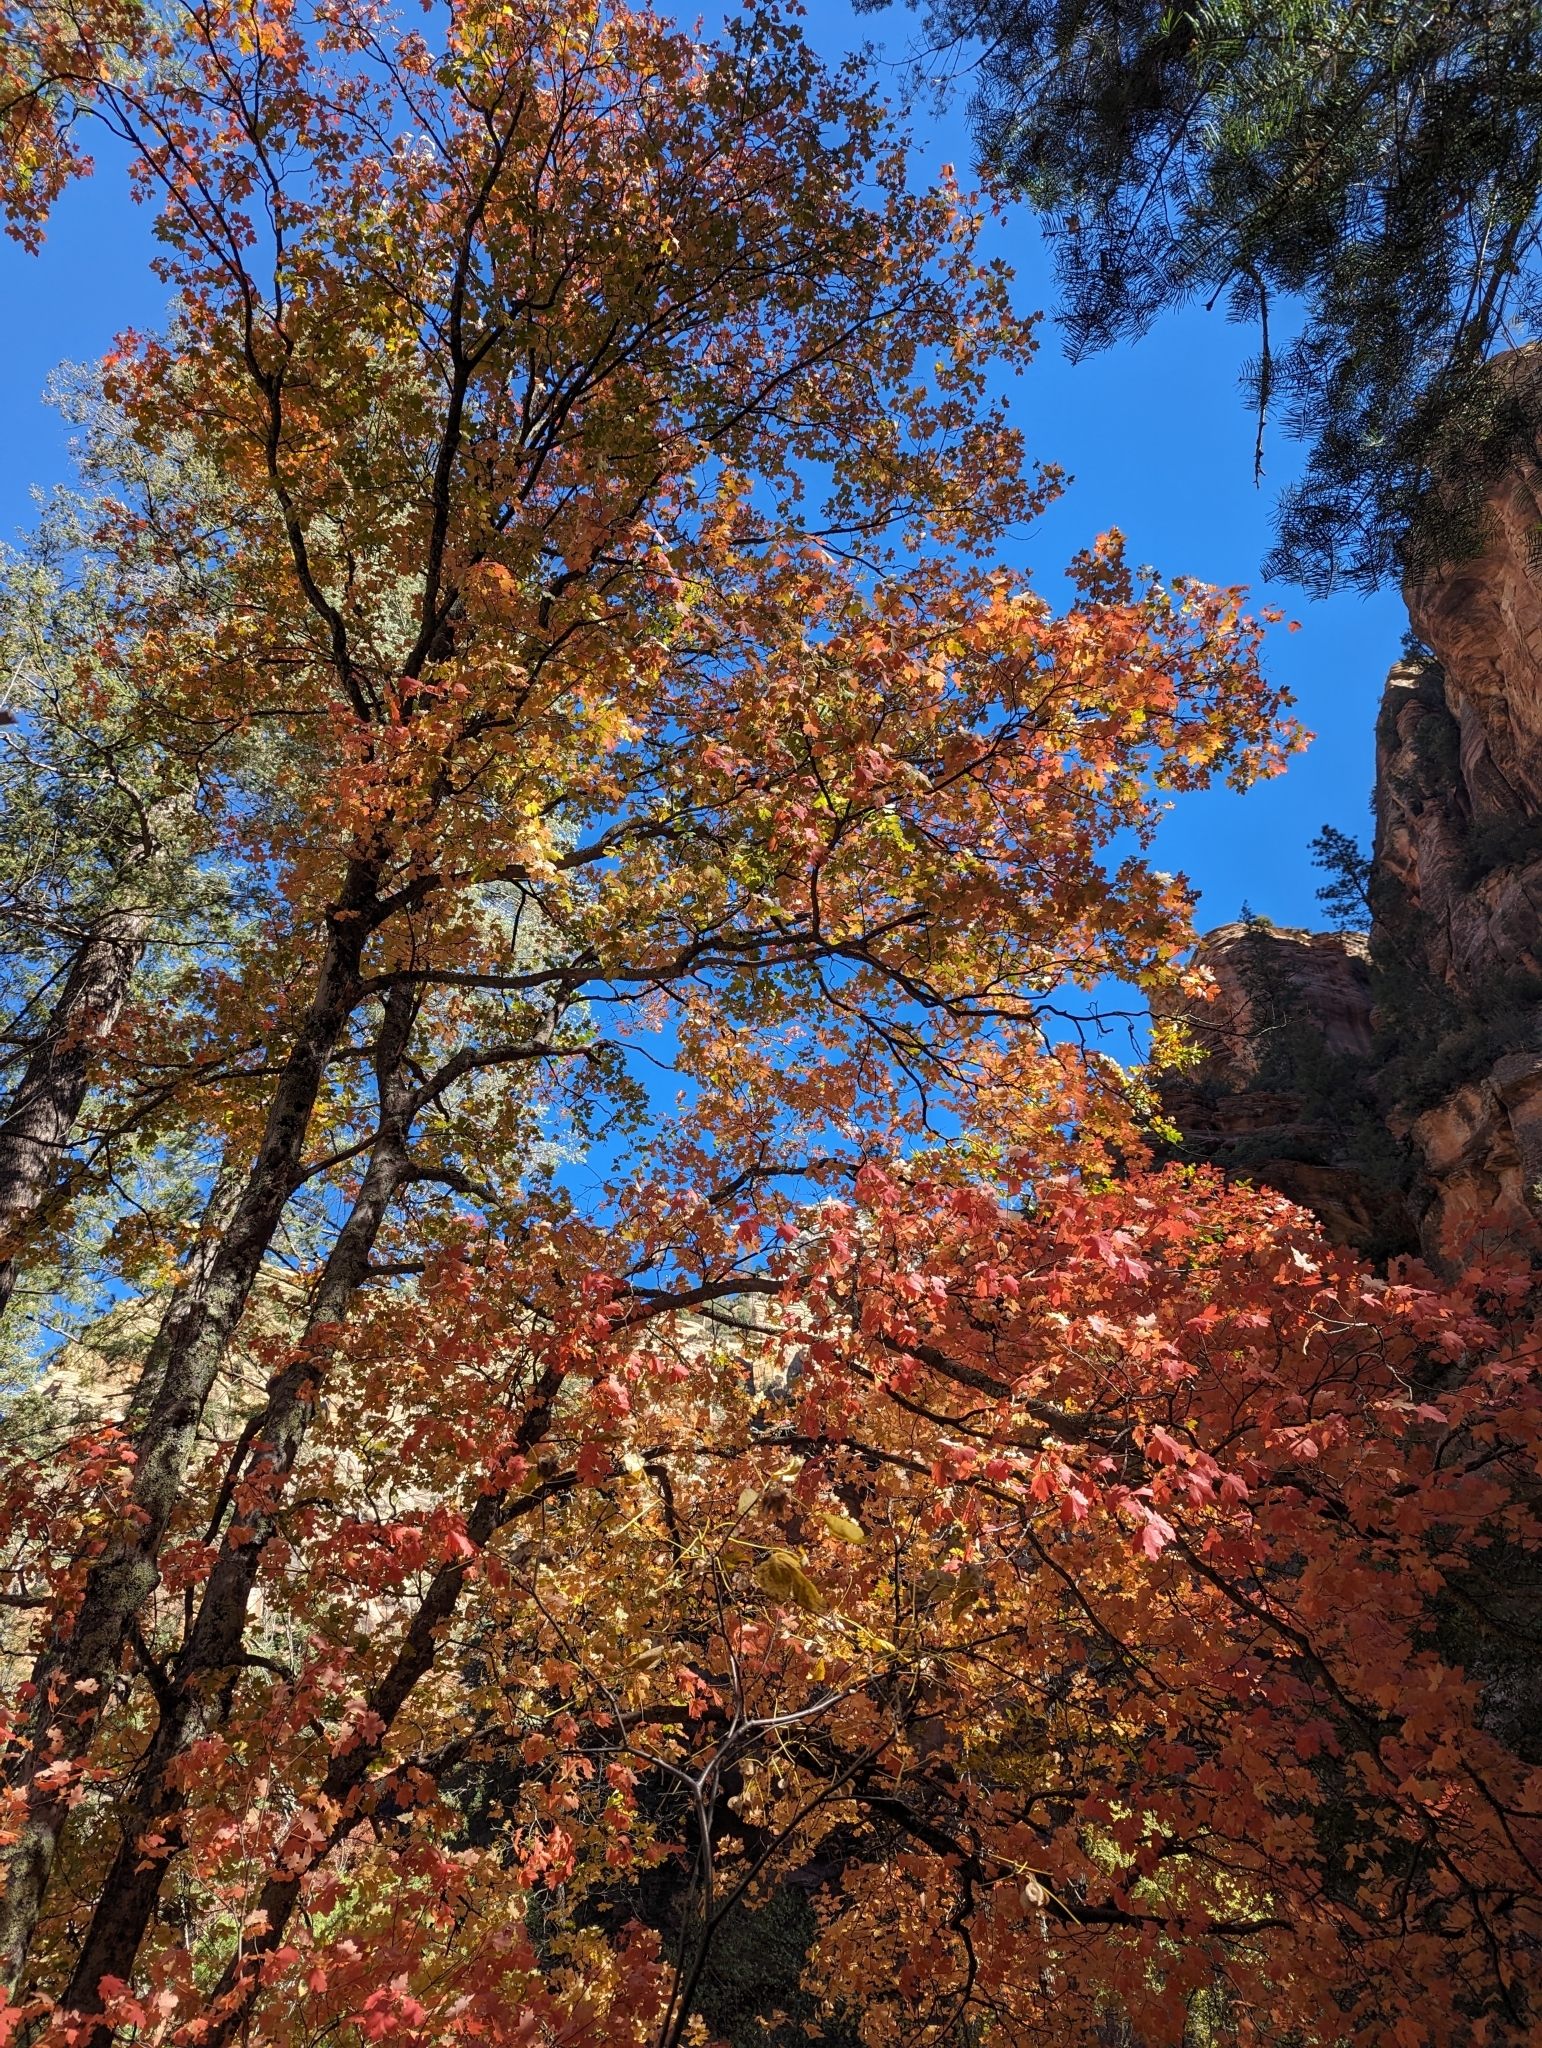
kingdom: Plantae
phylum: Tracheophyta
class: Magnoliopsida
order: Sapindales
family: Sapindaceae
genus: Acer
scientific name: Acer grandidentatum
